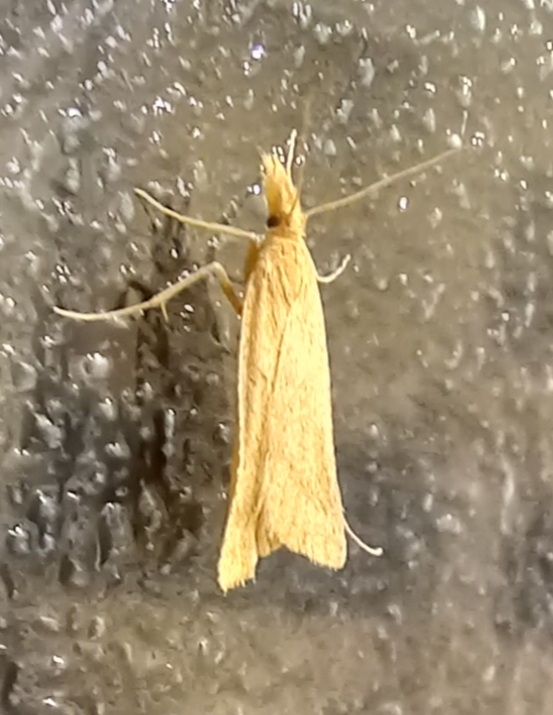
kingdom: Animalia
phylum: Arthropoda
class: Insecta
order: Lepidoptera
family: Pyralidae
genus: Synaphe
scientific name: Synaphe punctalis
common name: Long-legged tabby
